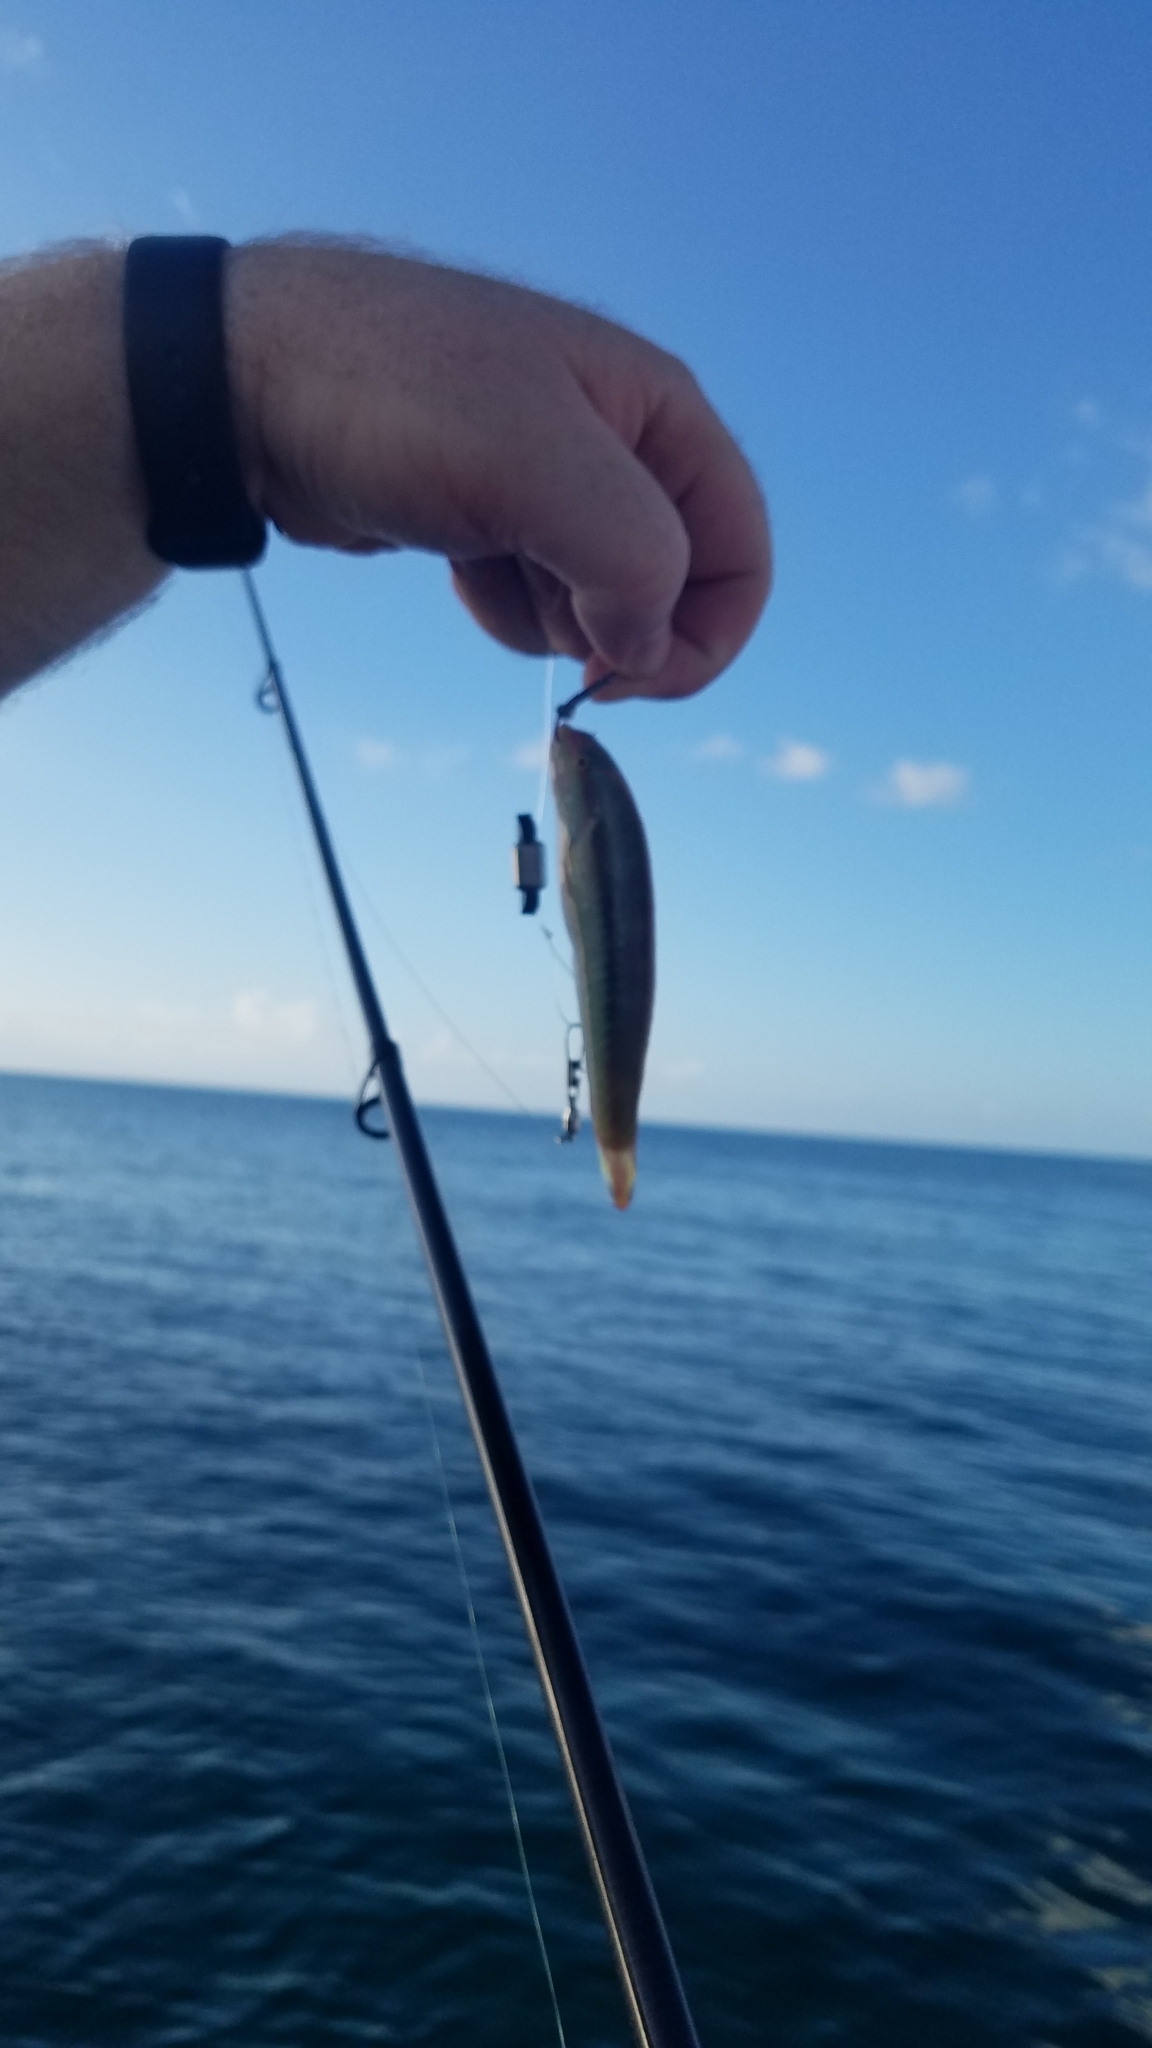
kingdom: Animalia
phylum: Chordata
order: Perciformes
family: Labridae
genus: Halichoeres
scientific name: Halichoeres bivittatus
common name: Slippery dick
